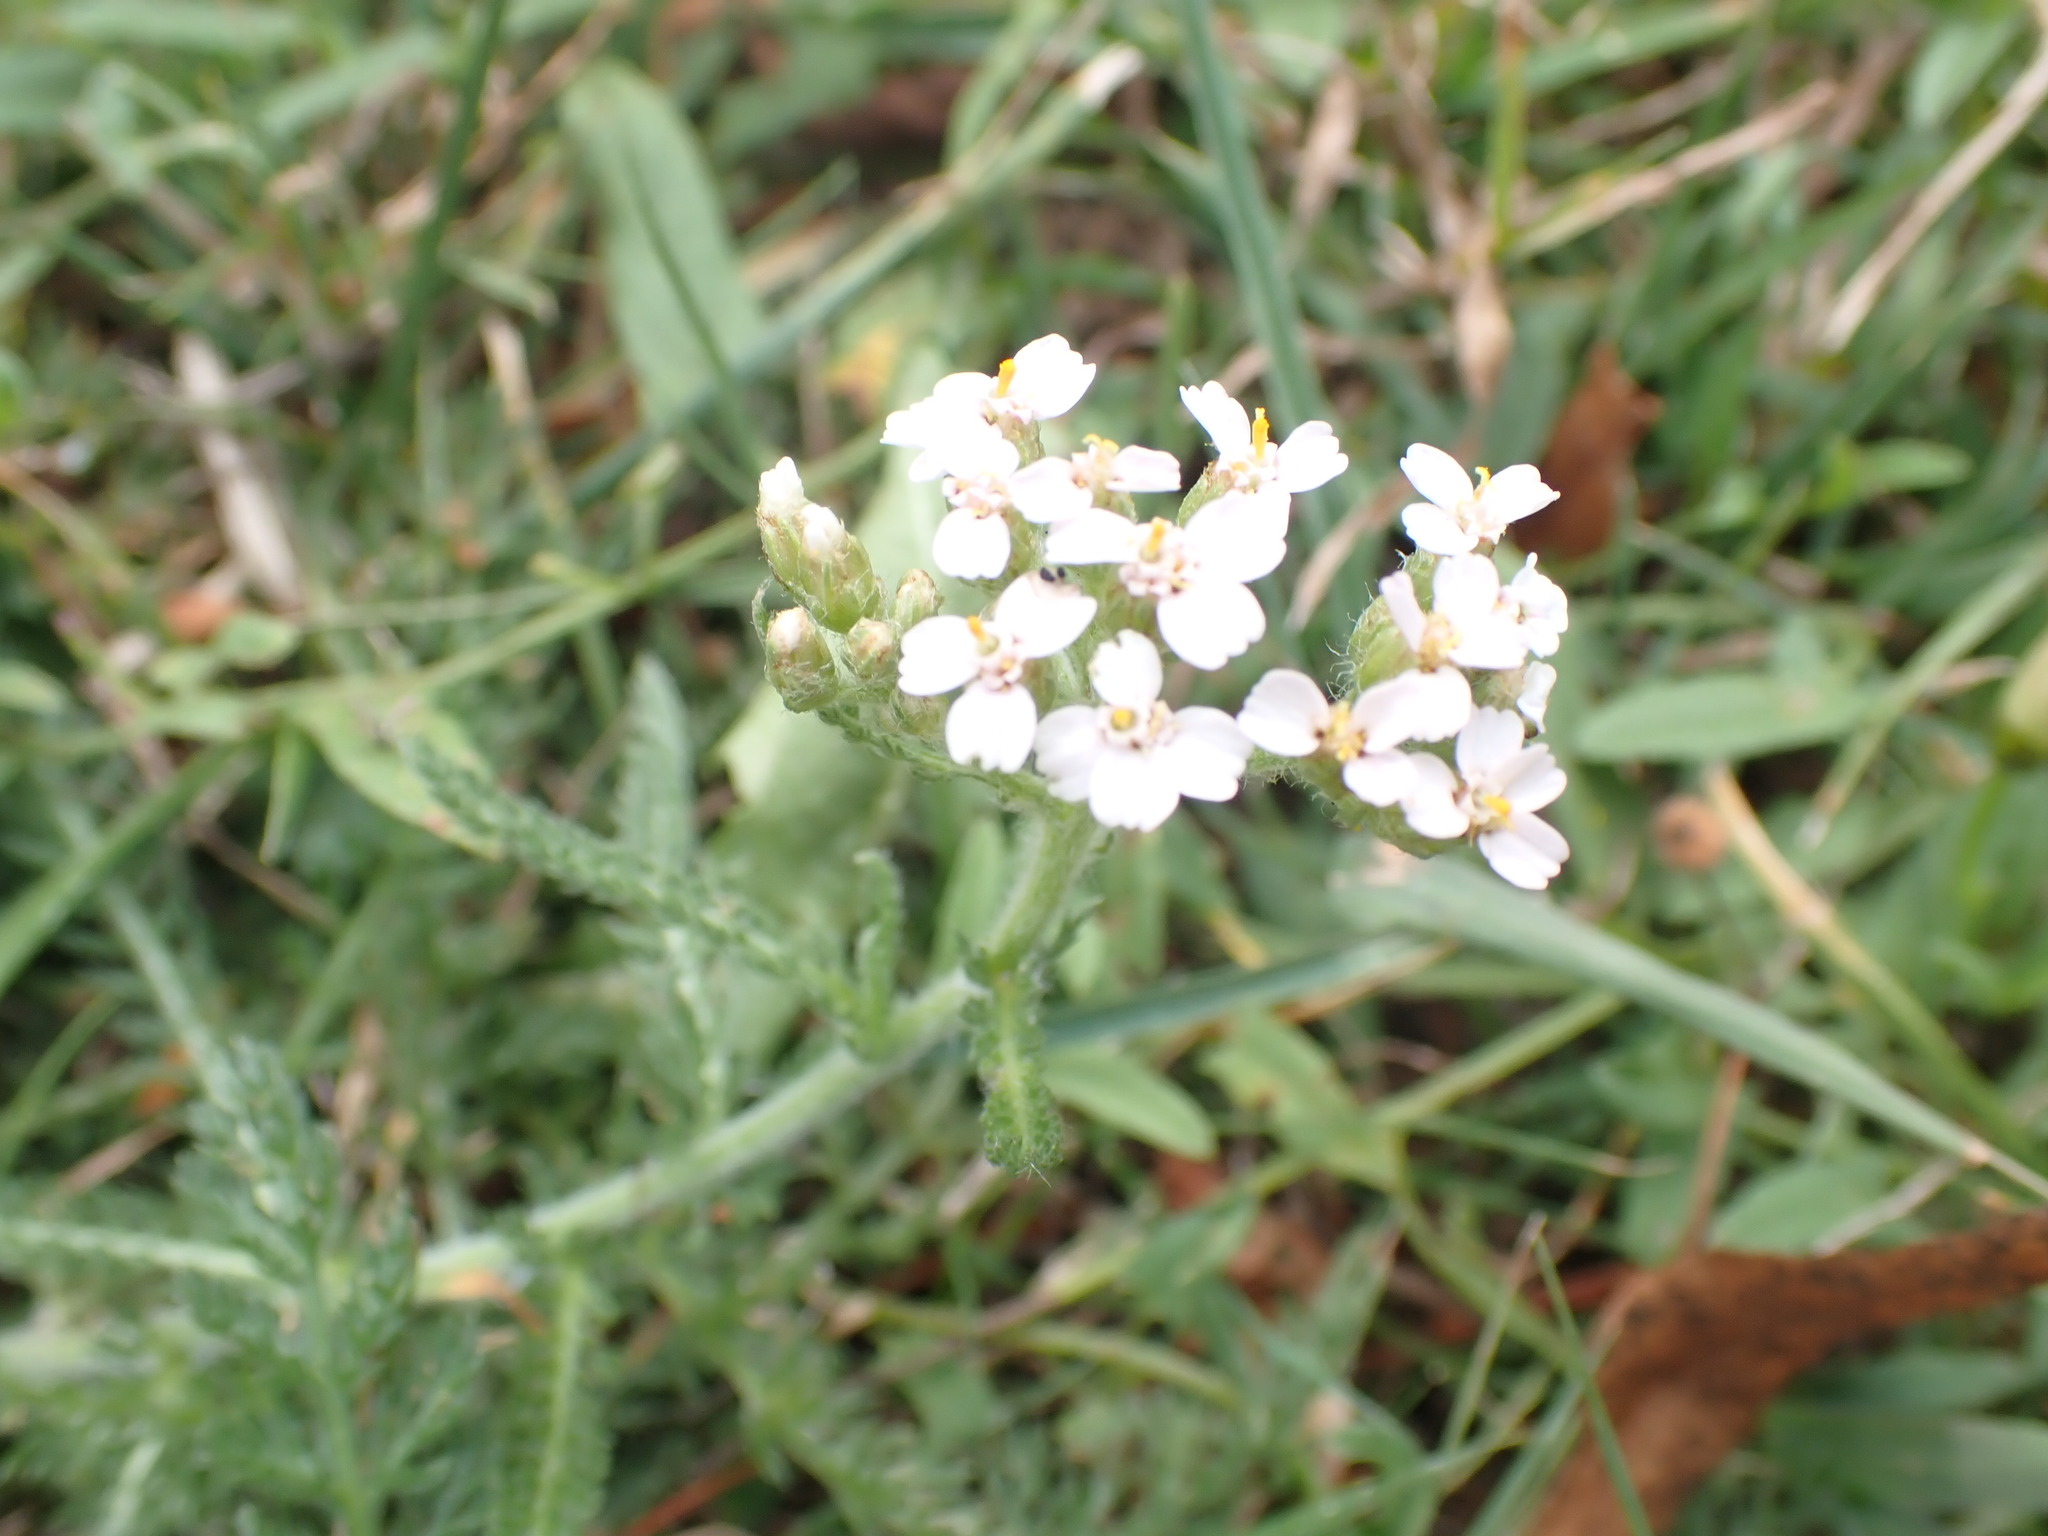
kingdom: Plantae
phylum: Tracheophyta
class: Magnoliopsida
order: Asterales
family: Asteraceae
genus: Achillea
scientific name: Achillea millefolium
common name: Yarrow
